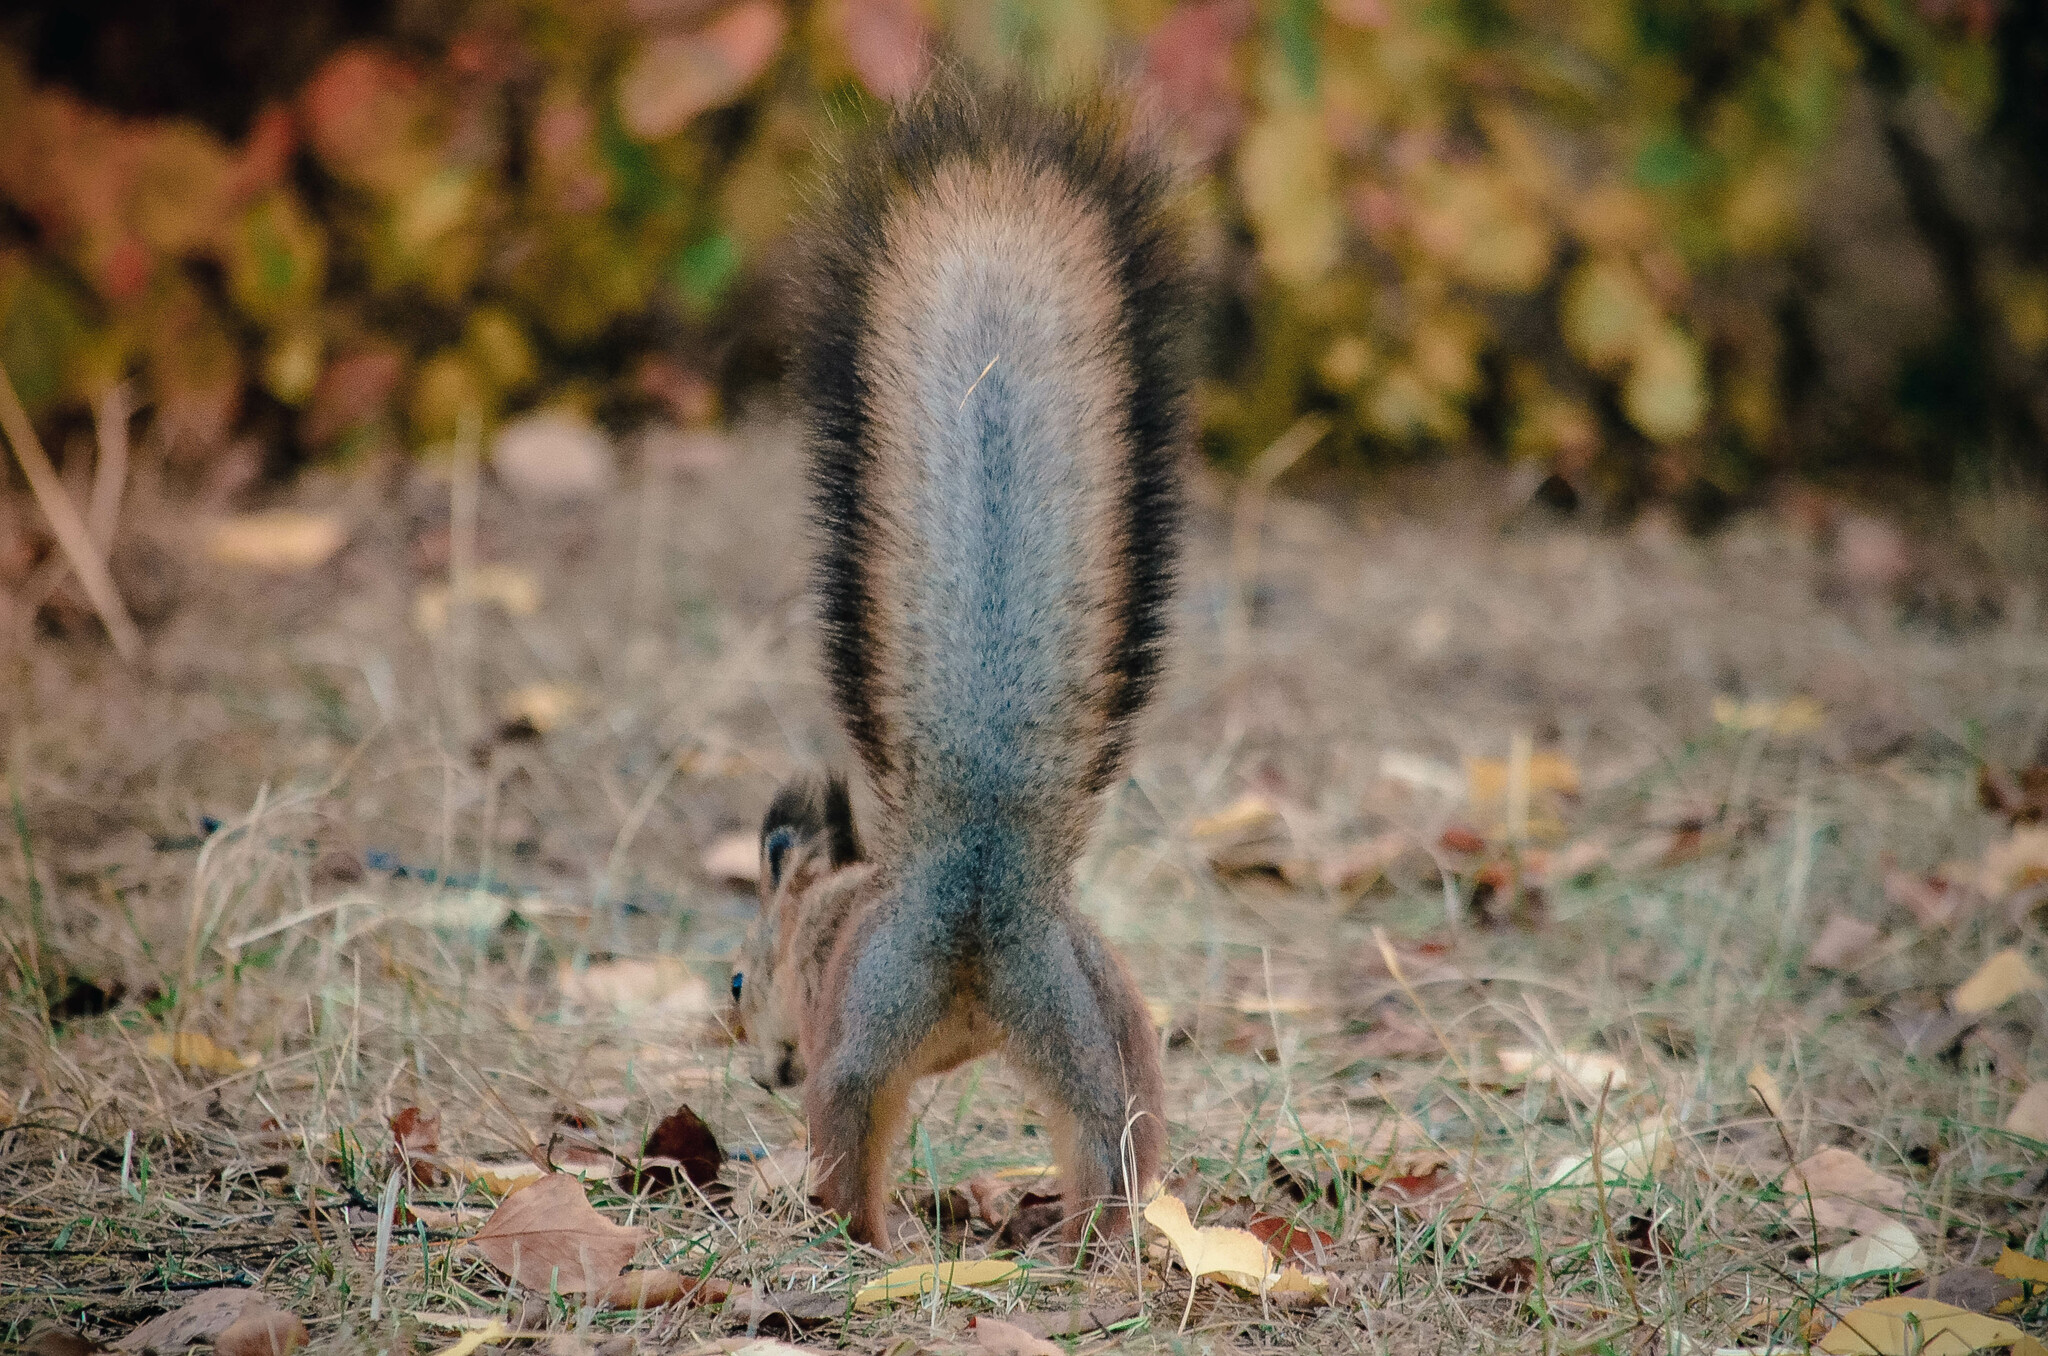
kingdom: Animalia
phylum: Chordata
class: Mammalia
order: Rodentia
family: Sciuridae
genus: Sciurus
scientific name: Sciurus vulgaris
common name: Eurasian red squirrel
